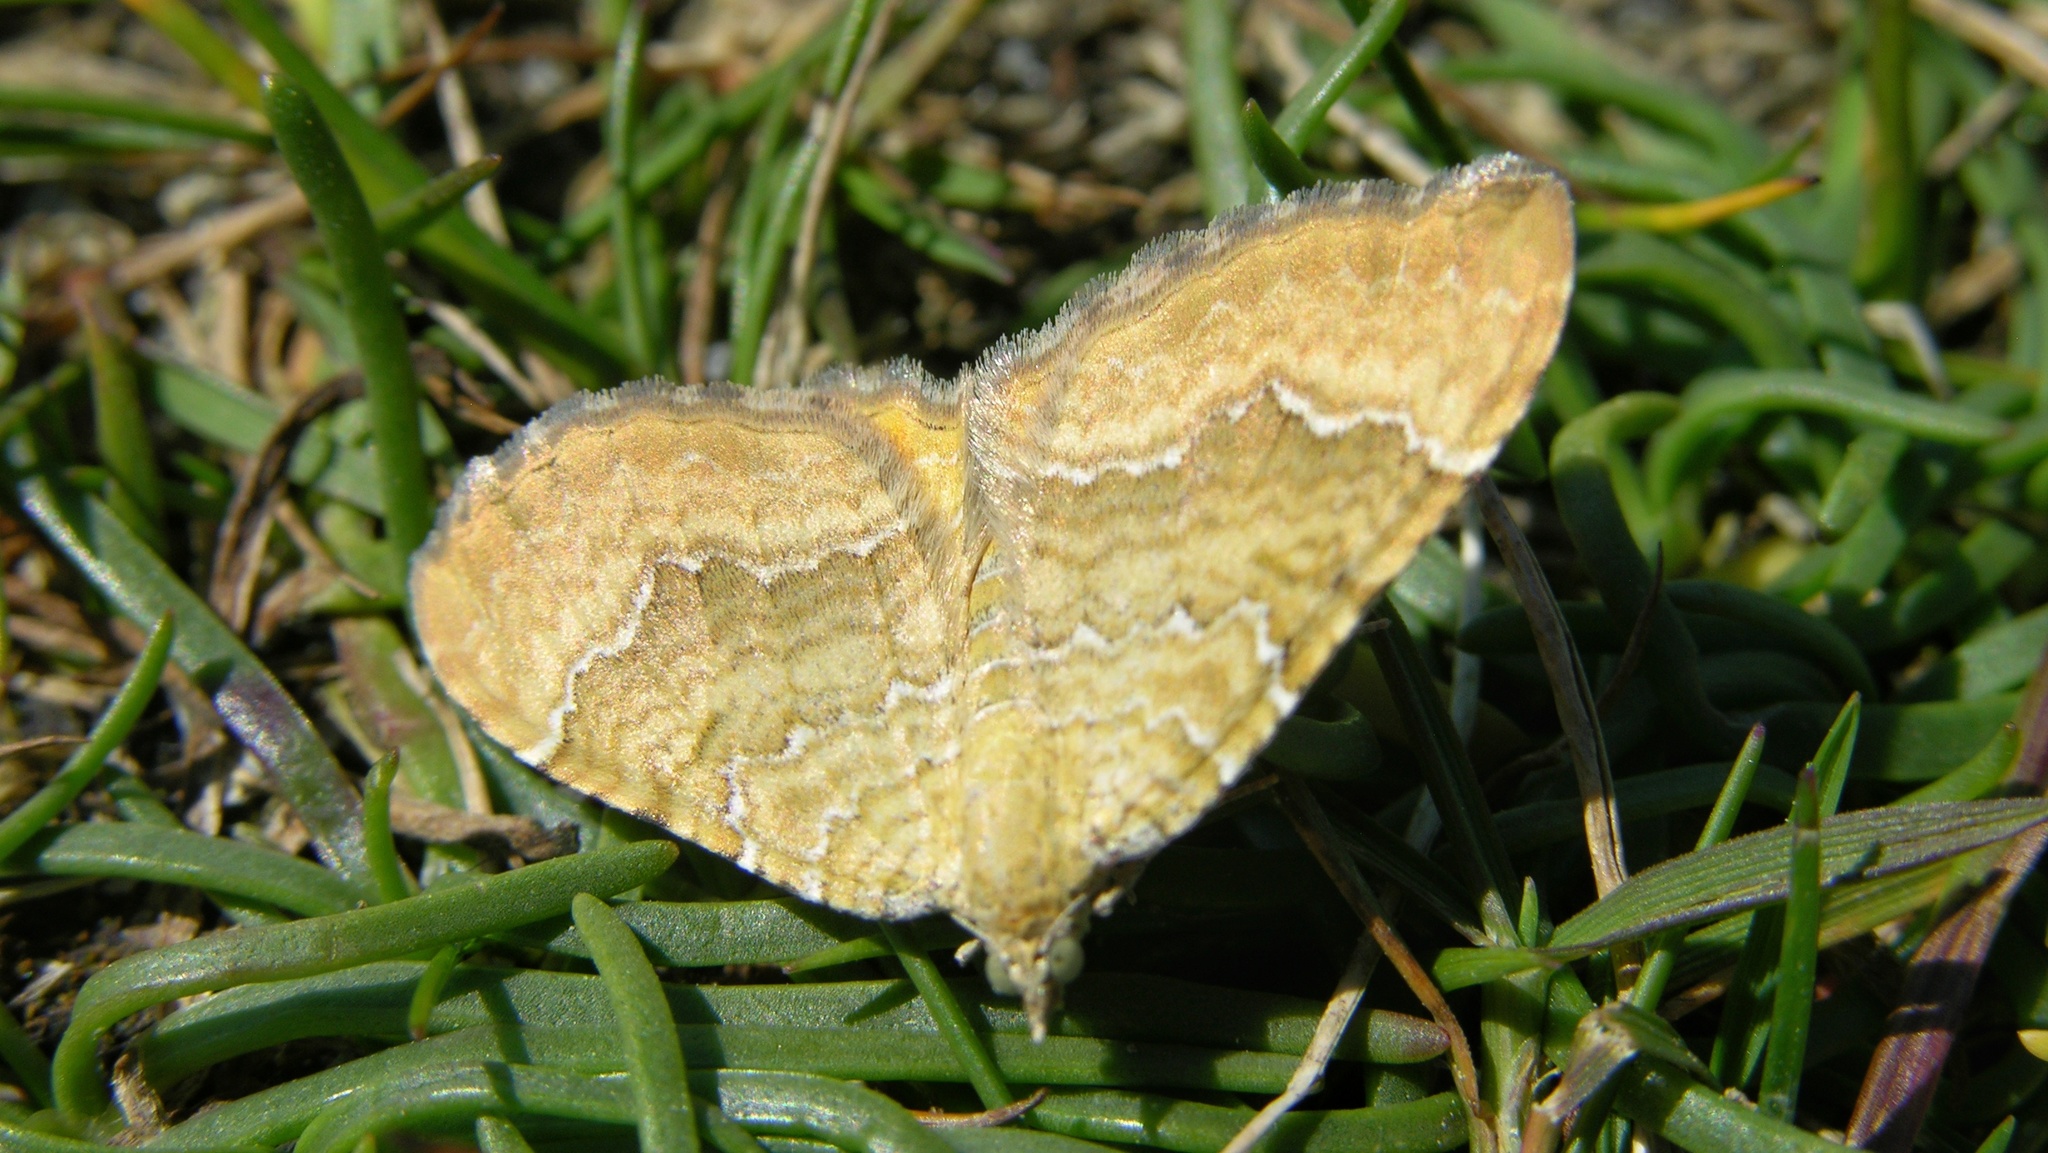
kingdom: Animalia
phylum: Arthropoda
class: Insecta
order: Lepidoptera
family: Geometridae
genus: Camptogramma
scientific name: Camptogramma bilineata
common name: Yellow shell
